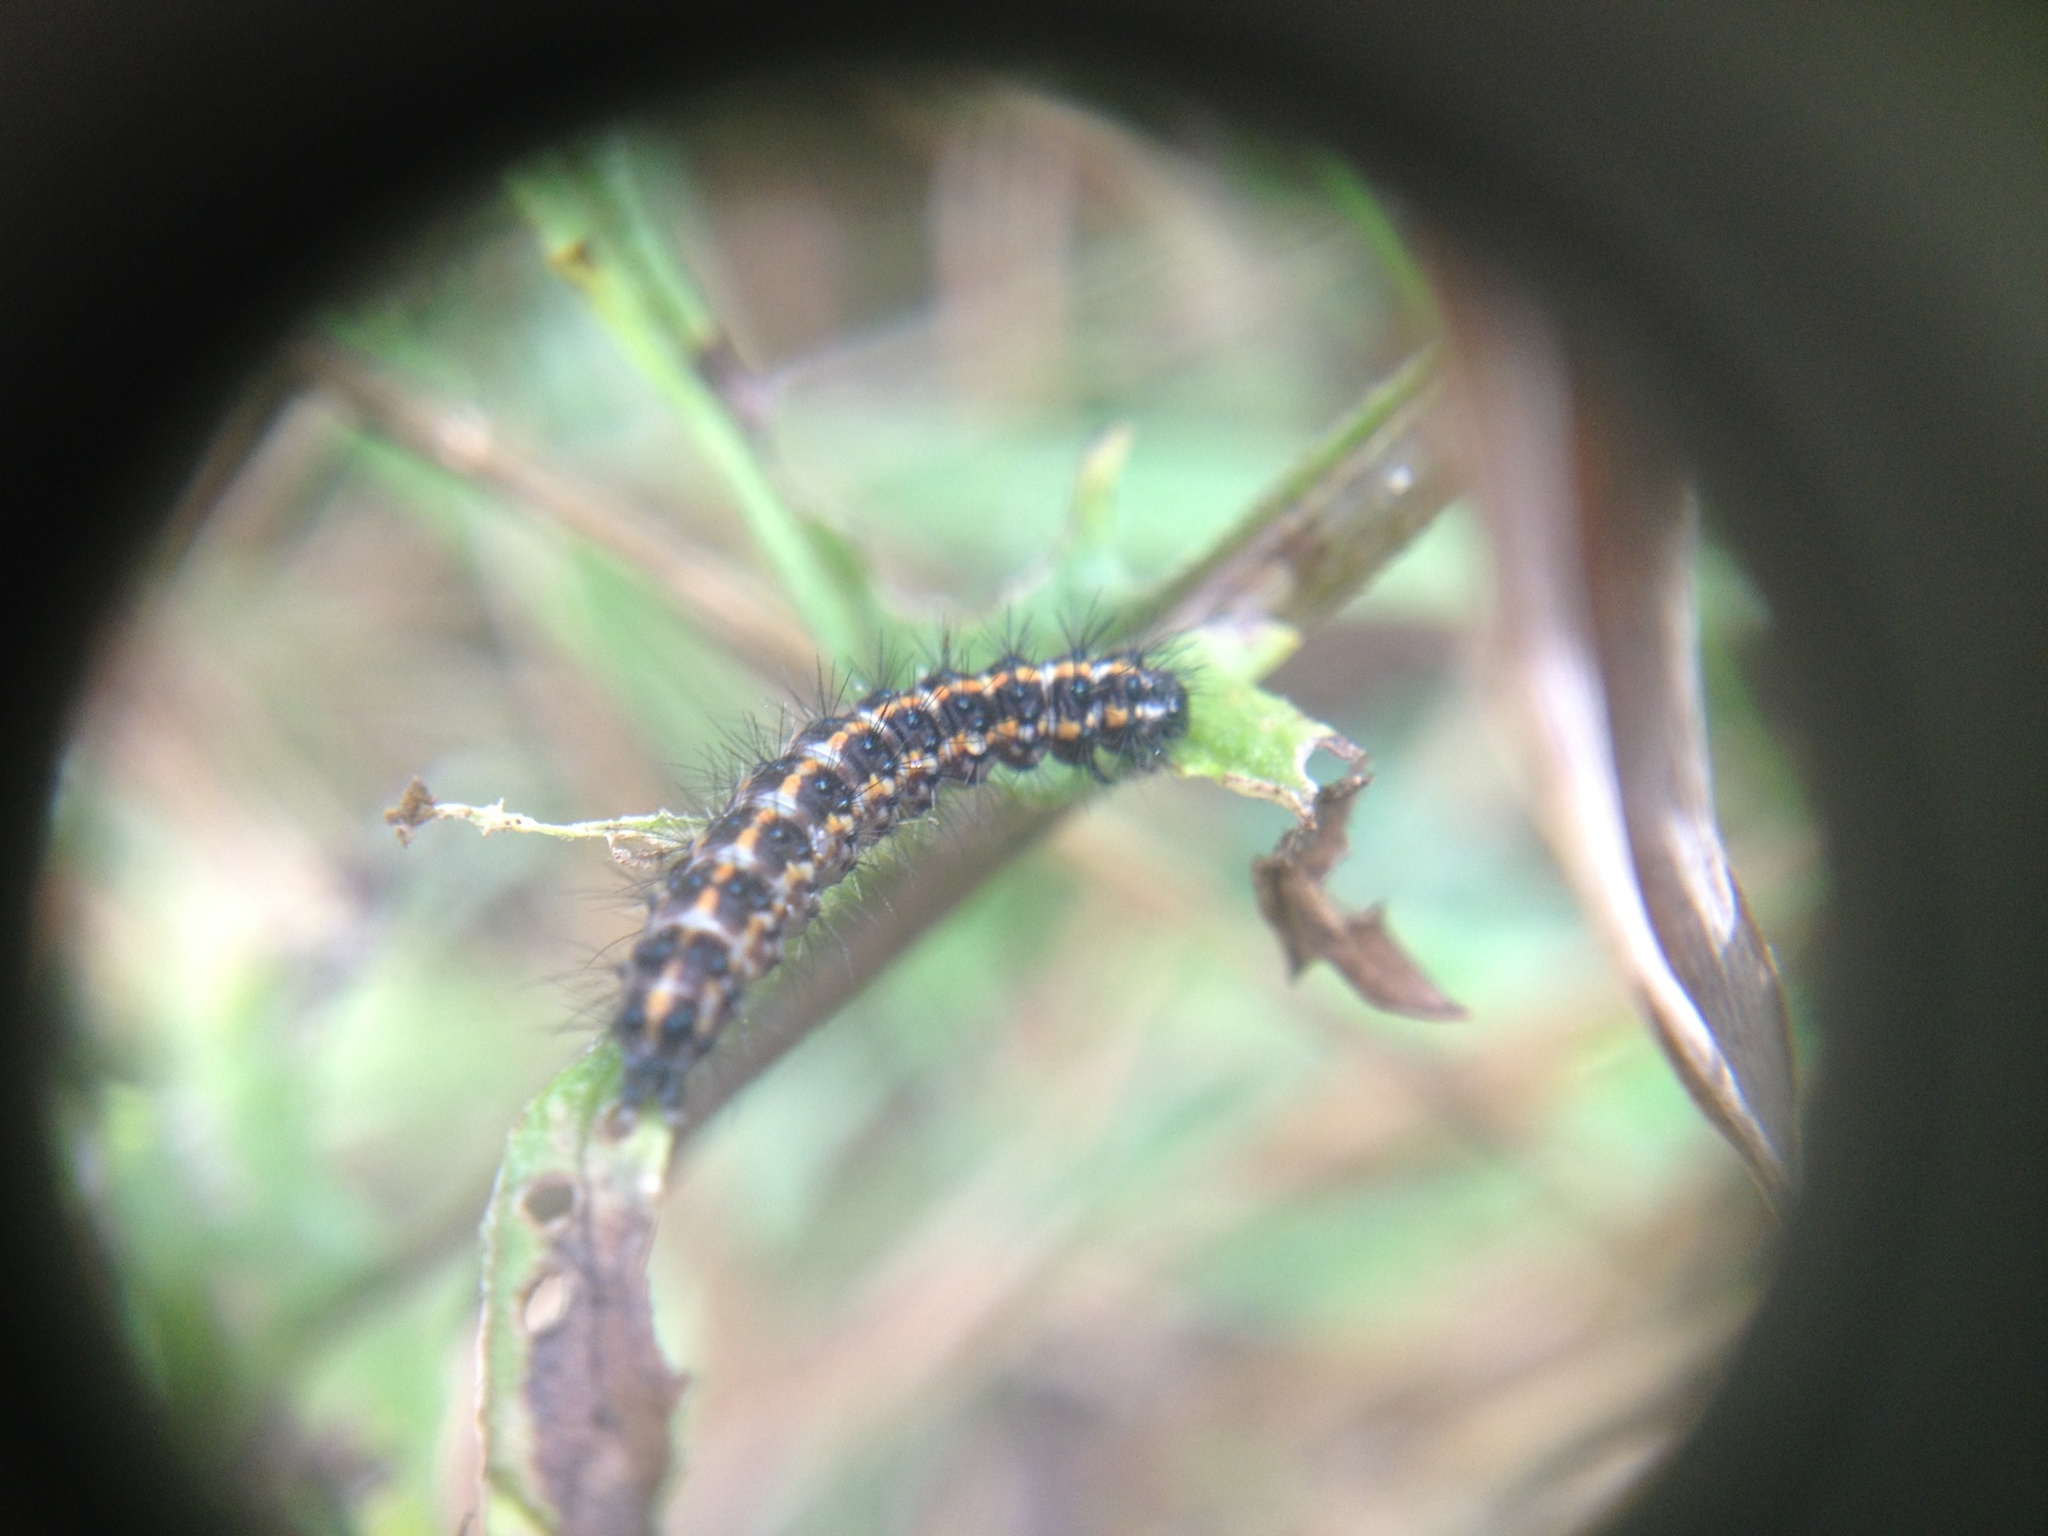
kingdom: Animalia
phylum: Arthropoda
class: Insecta
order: Lepidoptera
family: Erebidae
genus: Nyctemera
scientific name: Nyctemera annulatum
